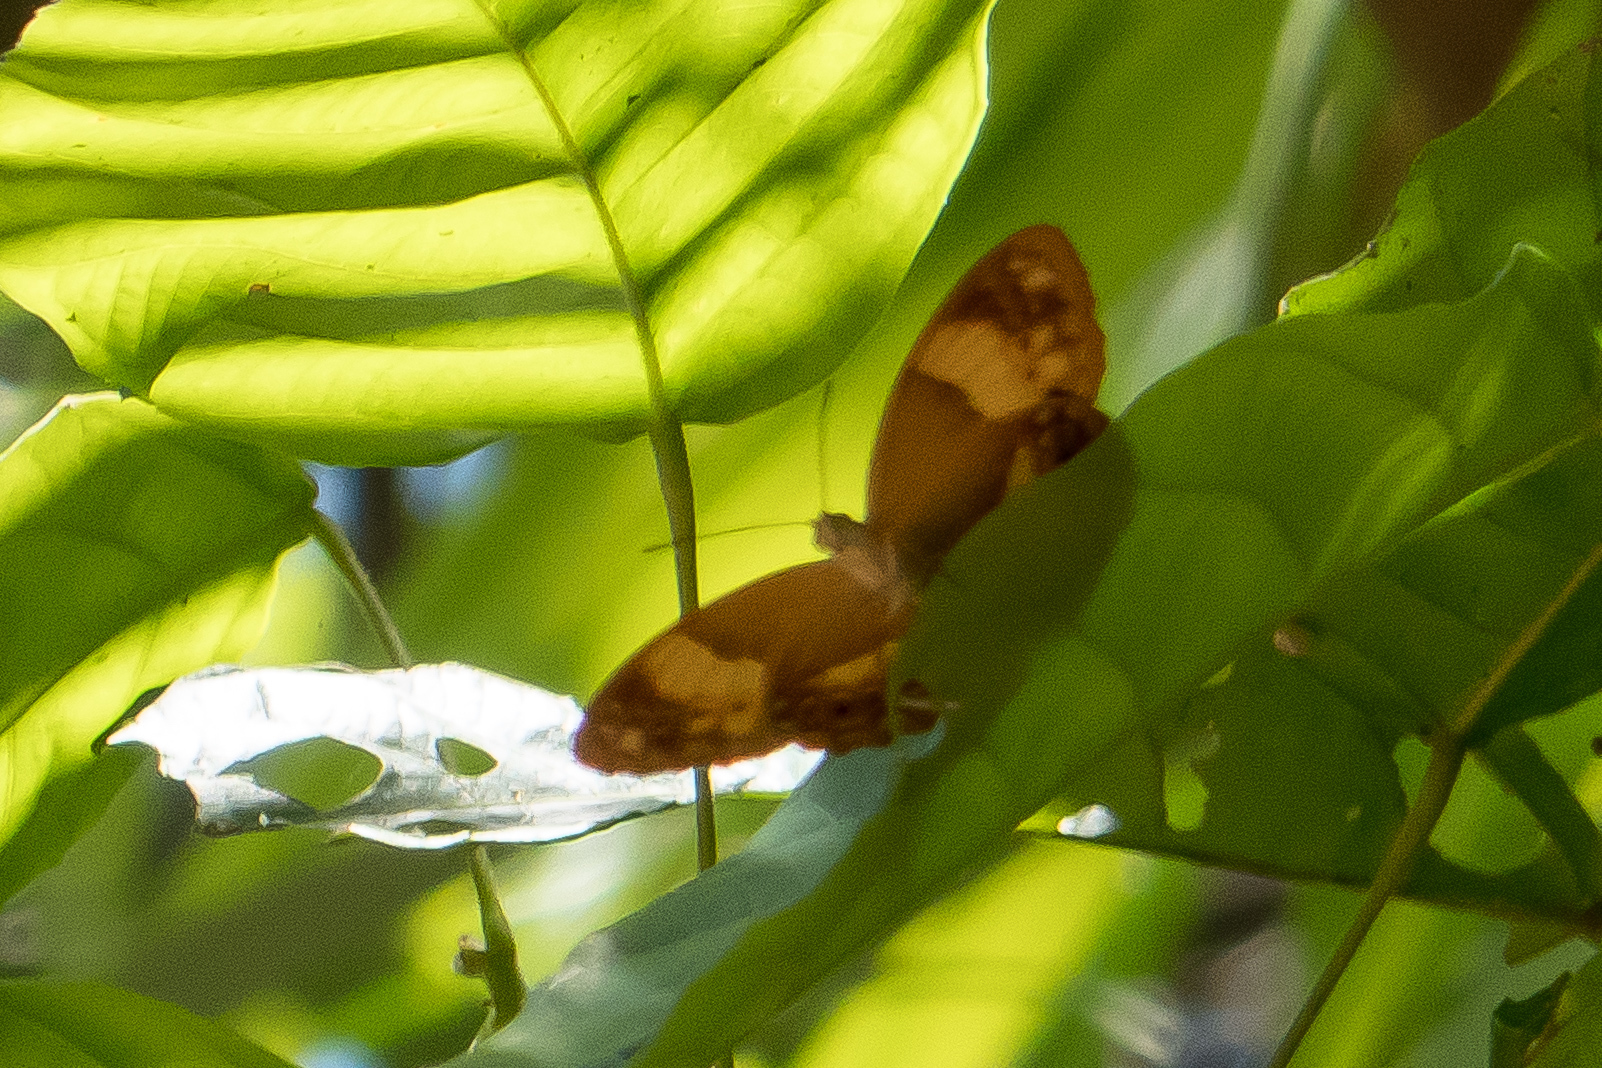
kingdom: Animalia
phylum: Arthropoda
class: Insecta
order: Lepidoptera
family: Nymphalidae
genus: Cupha
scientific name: Cupha prosope
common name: Bordered rustic
